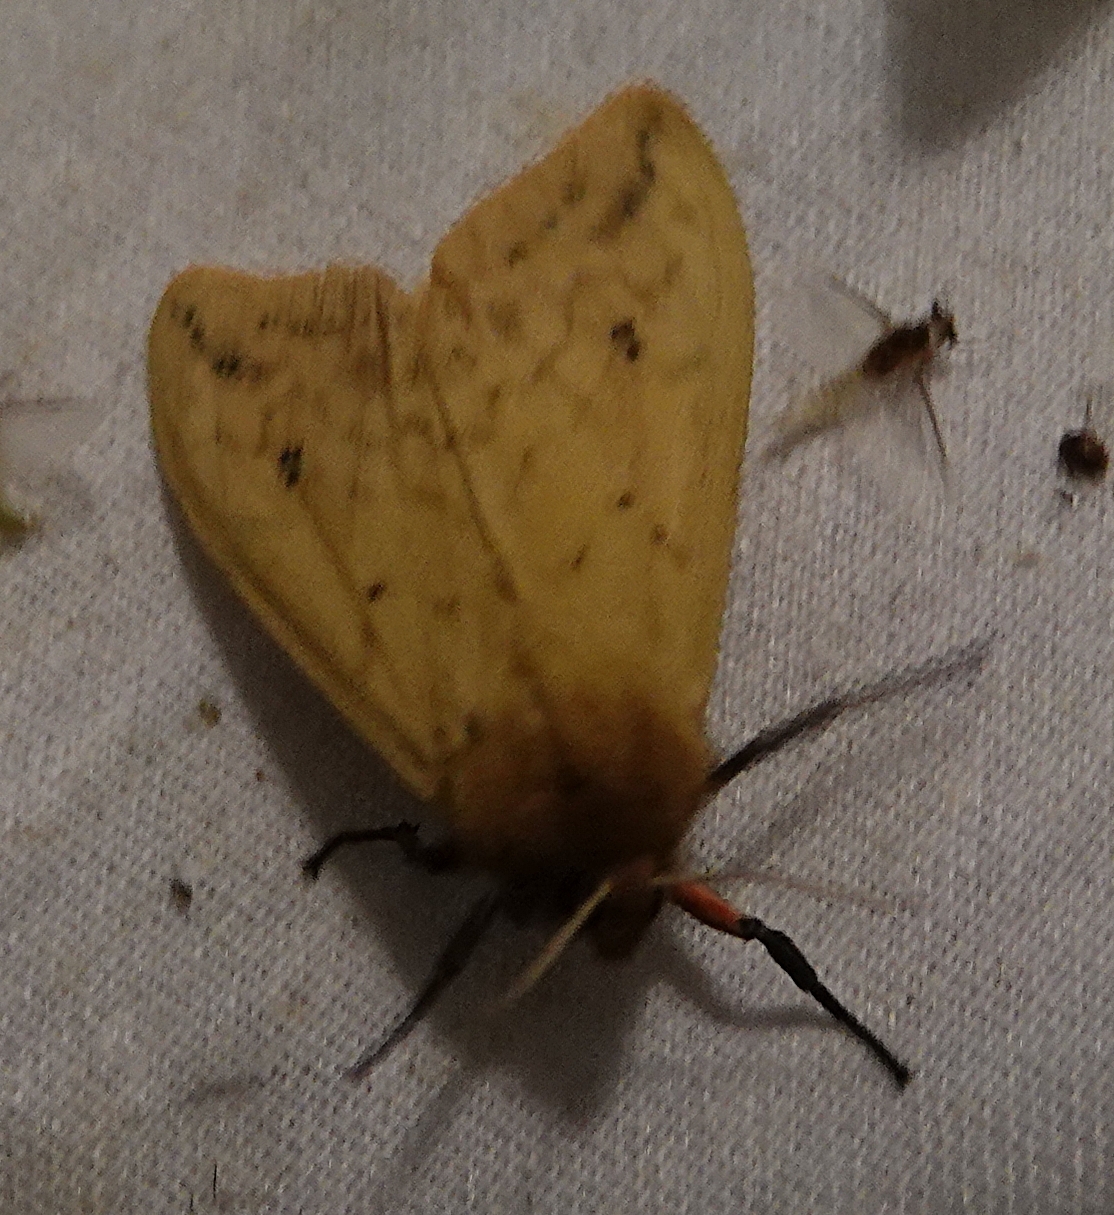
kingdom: Animalia
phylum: Arthropoda
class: Insecta
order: Lepidoptera
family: Erebidae
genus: Pyrrharctia
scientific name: Pyrrharctia isabella
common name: Isabella tiger moth
